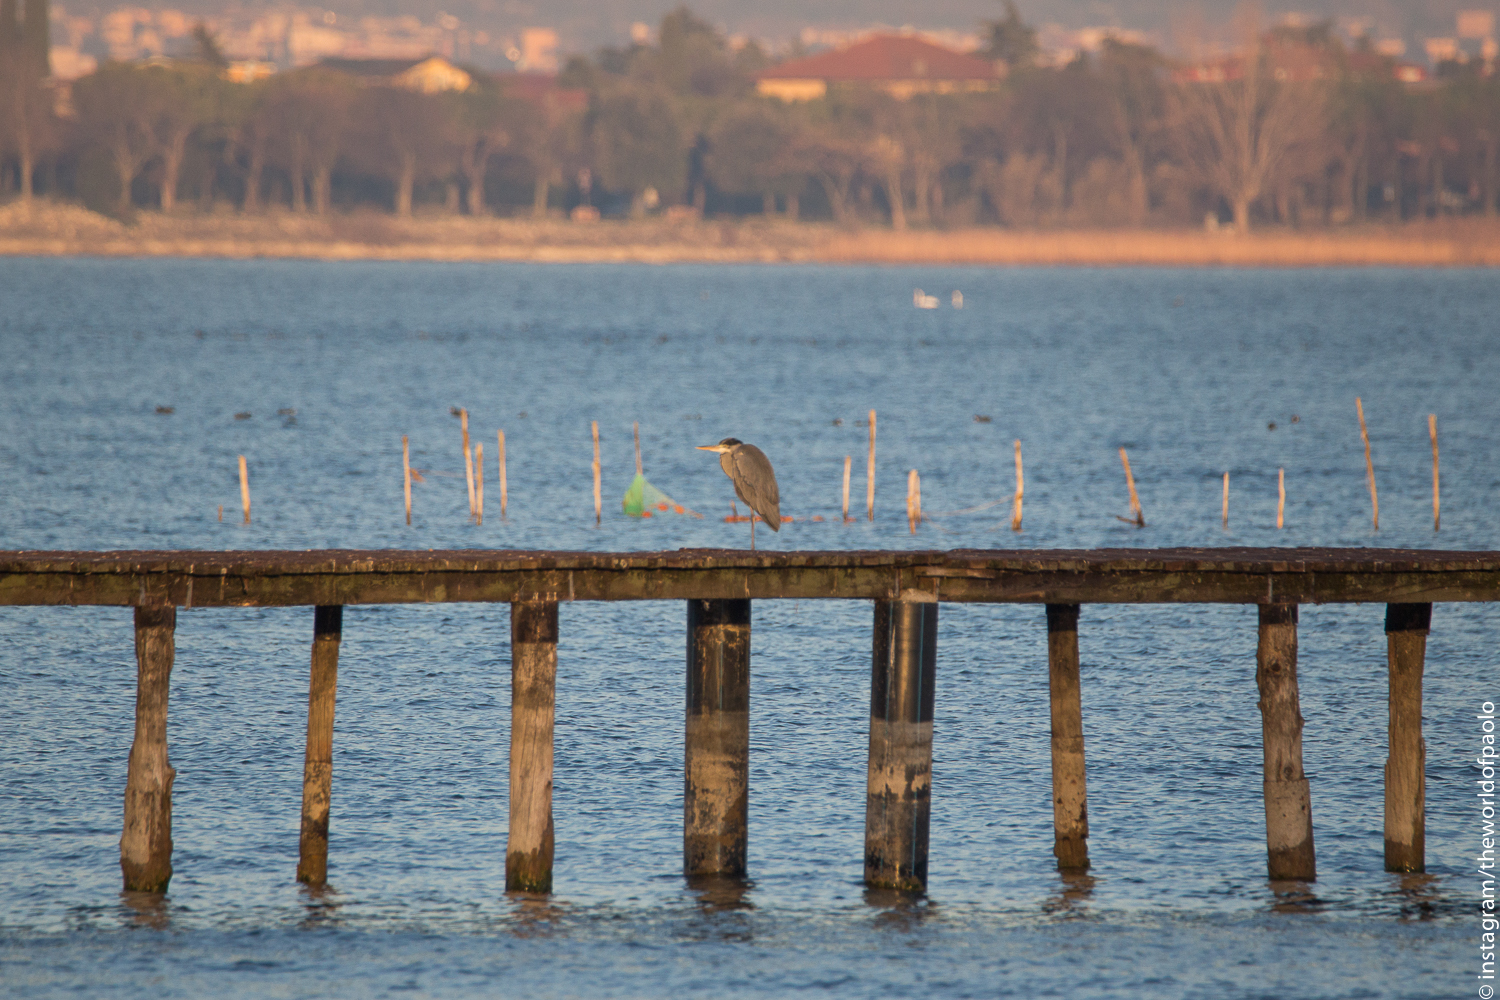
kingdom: Animalia
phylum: Chordata
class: Aves
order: Pelecaniformes
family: Ardeidae
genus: Ardea
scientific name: Ardea cinerea
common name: Grey heron
